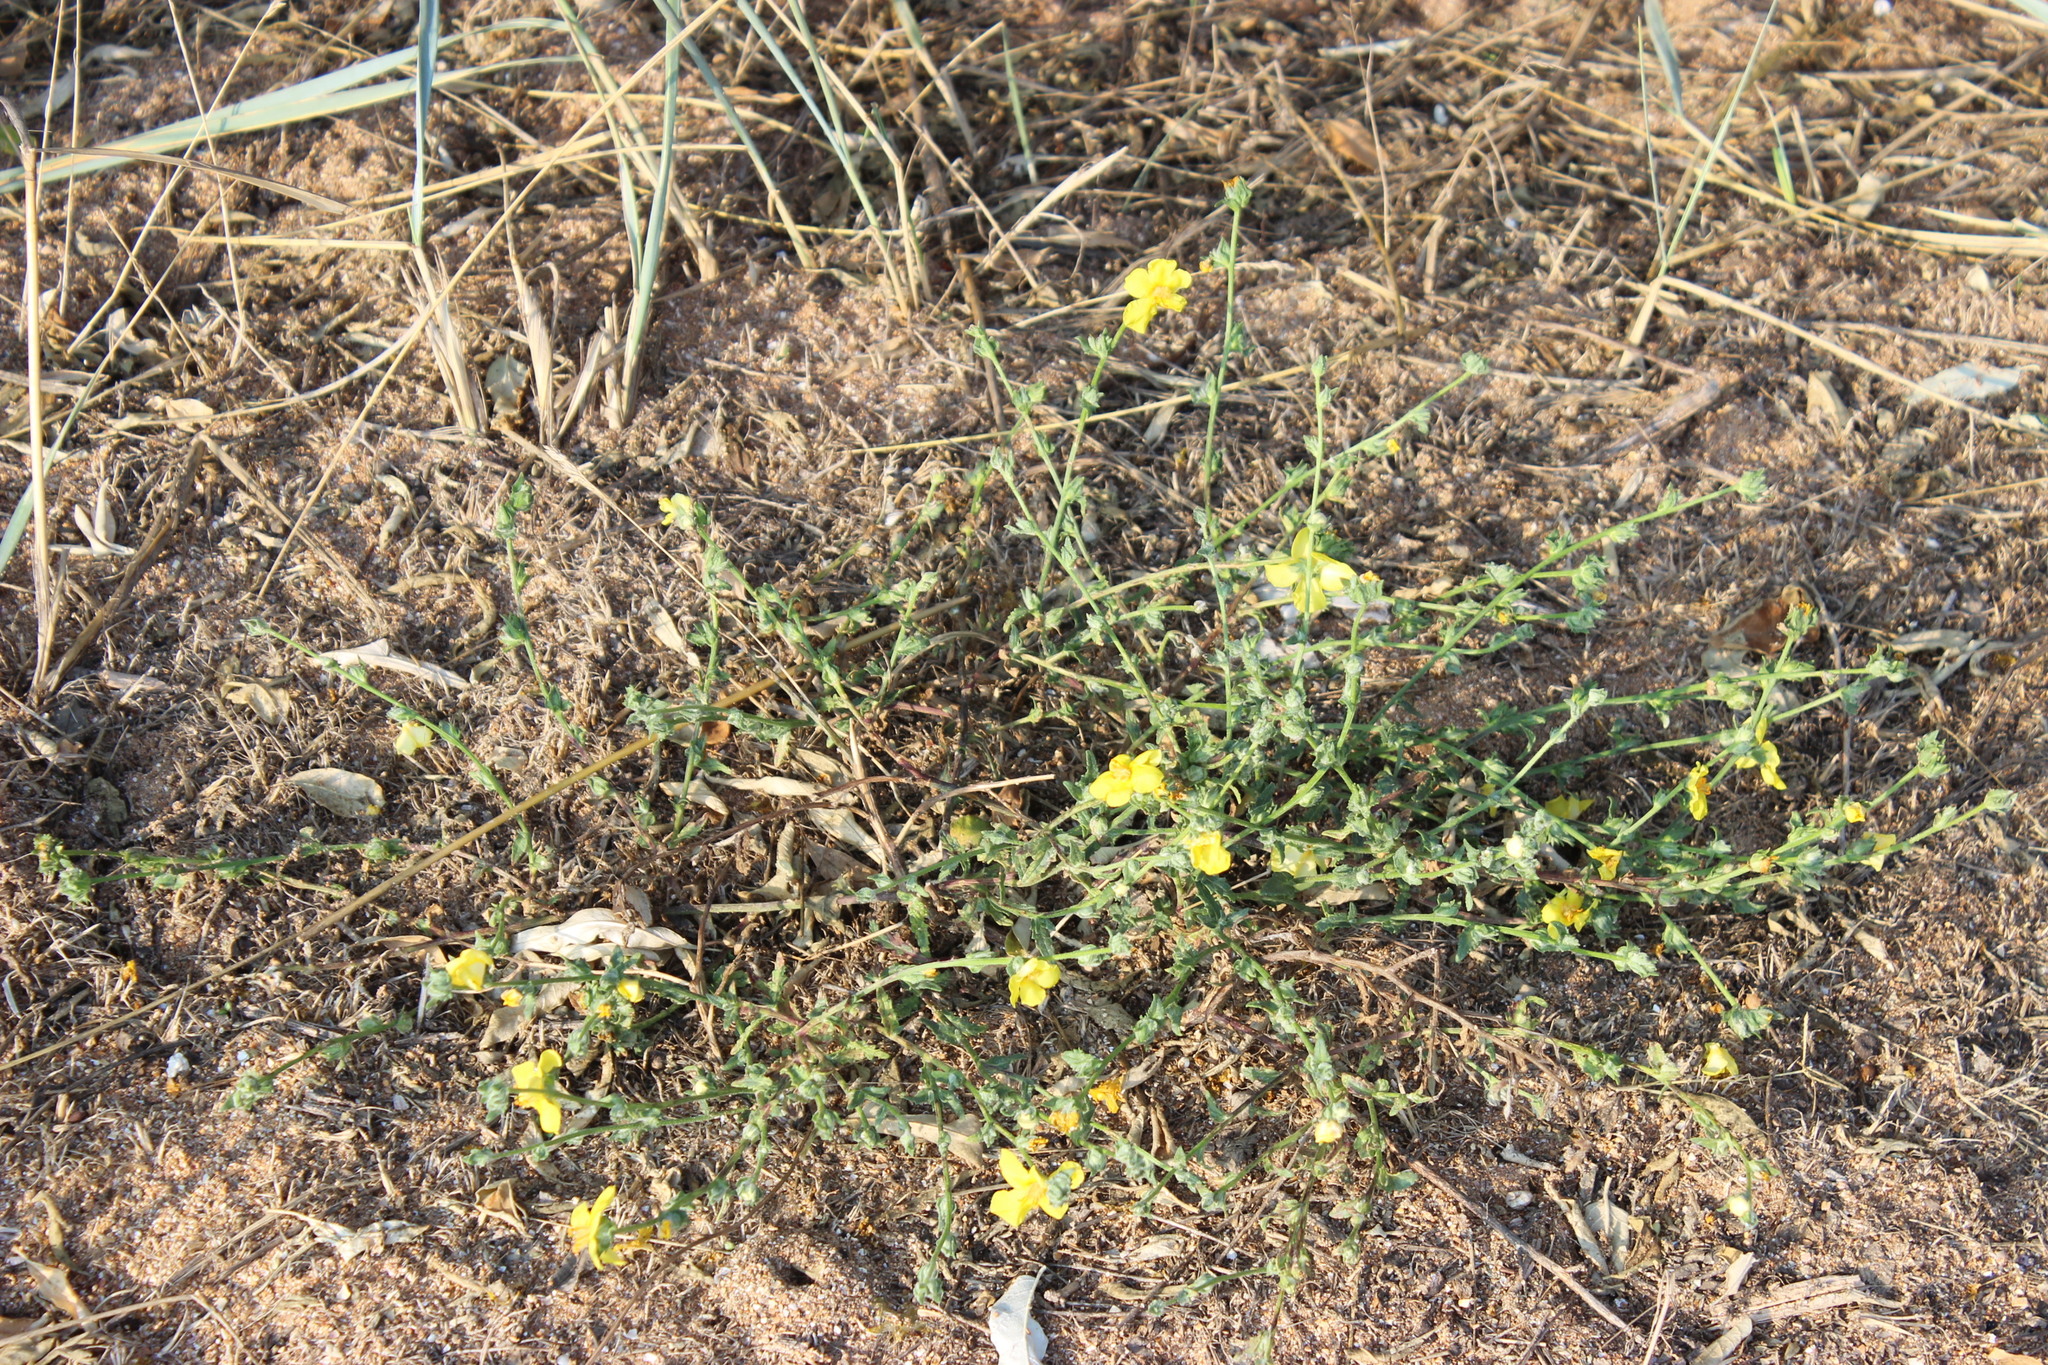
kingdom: Plantae
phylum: Tracheophyta
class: Magnoliopsida
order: Lamiales
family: Scrophulariaceae
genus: Verbascum
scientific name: Verbascum pinnatifidum
